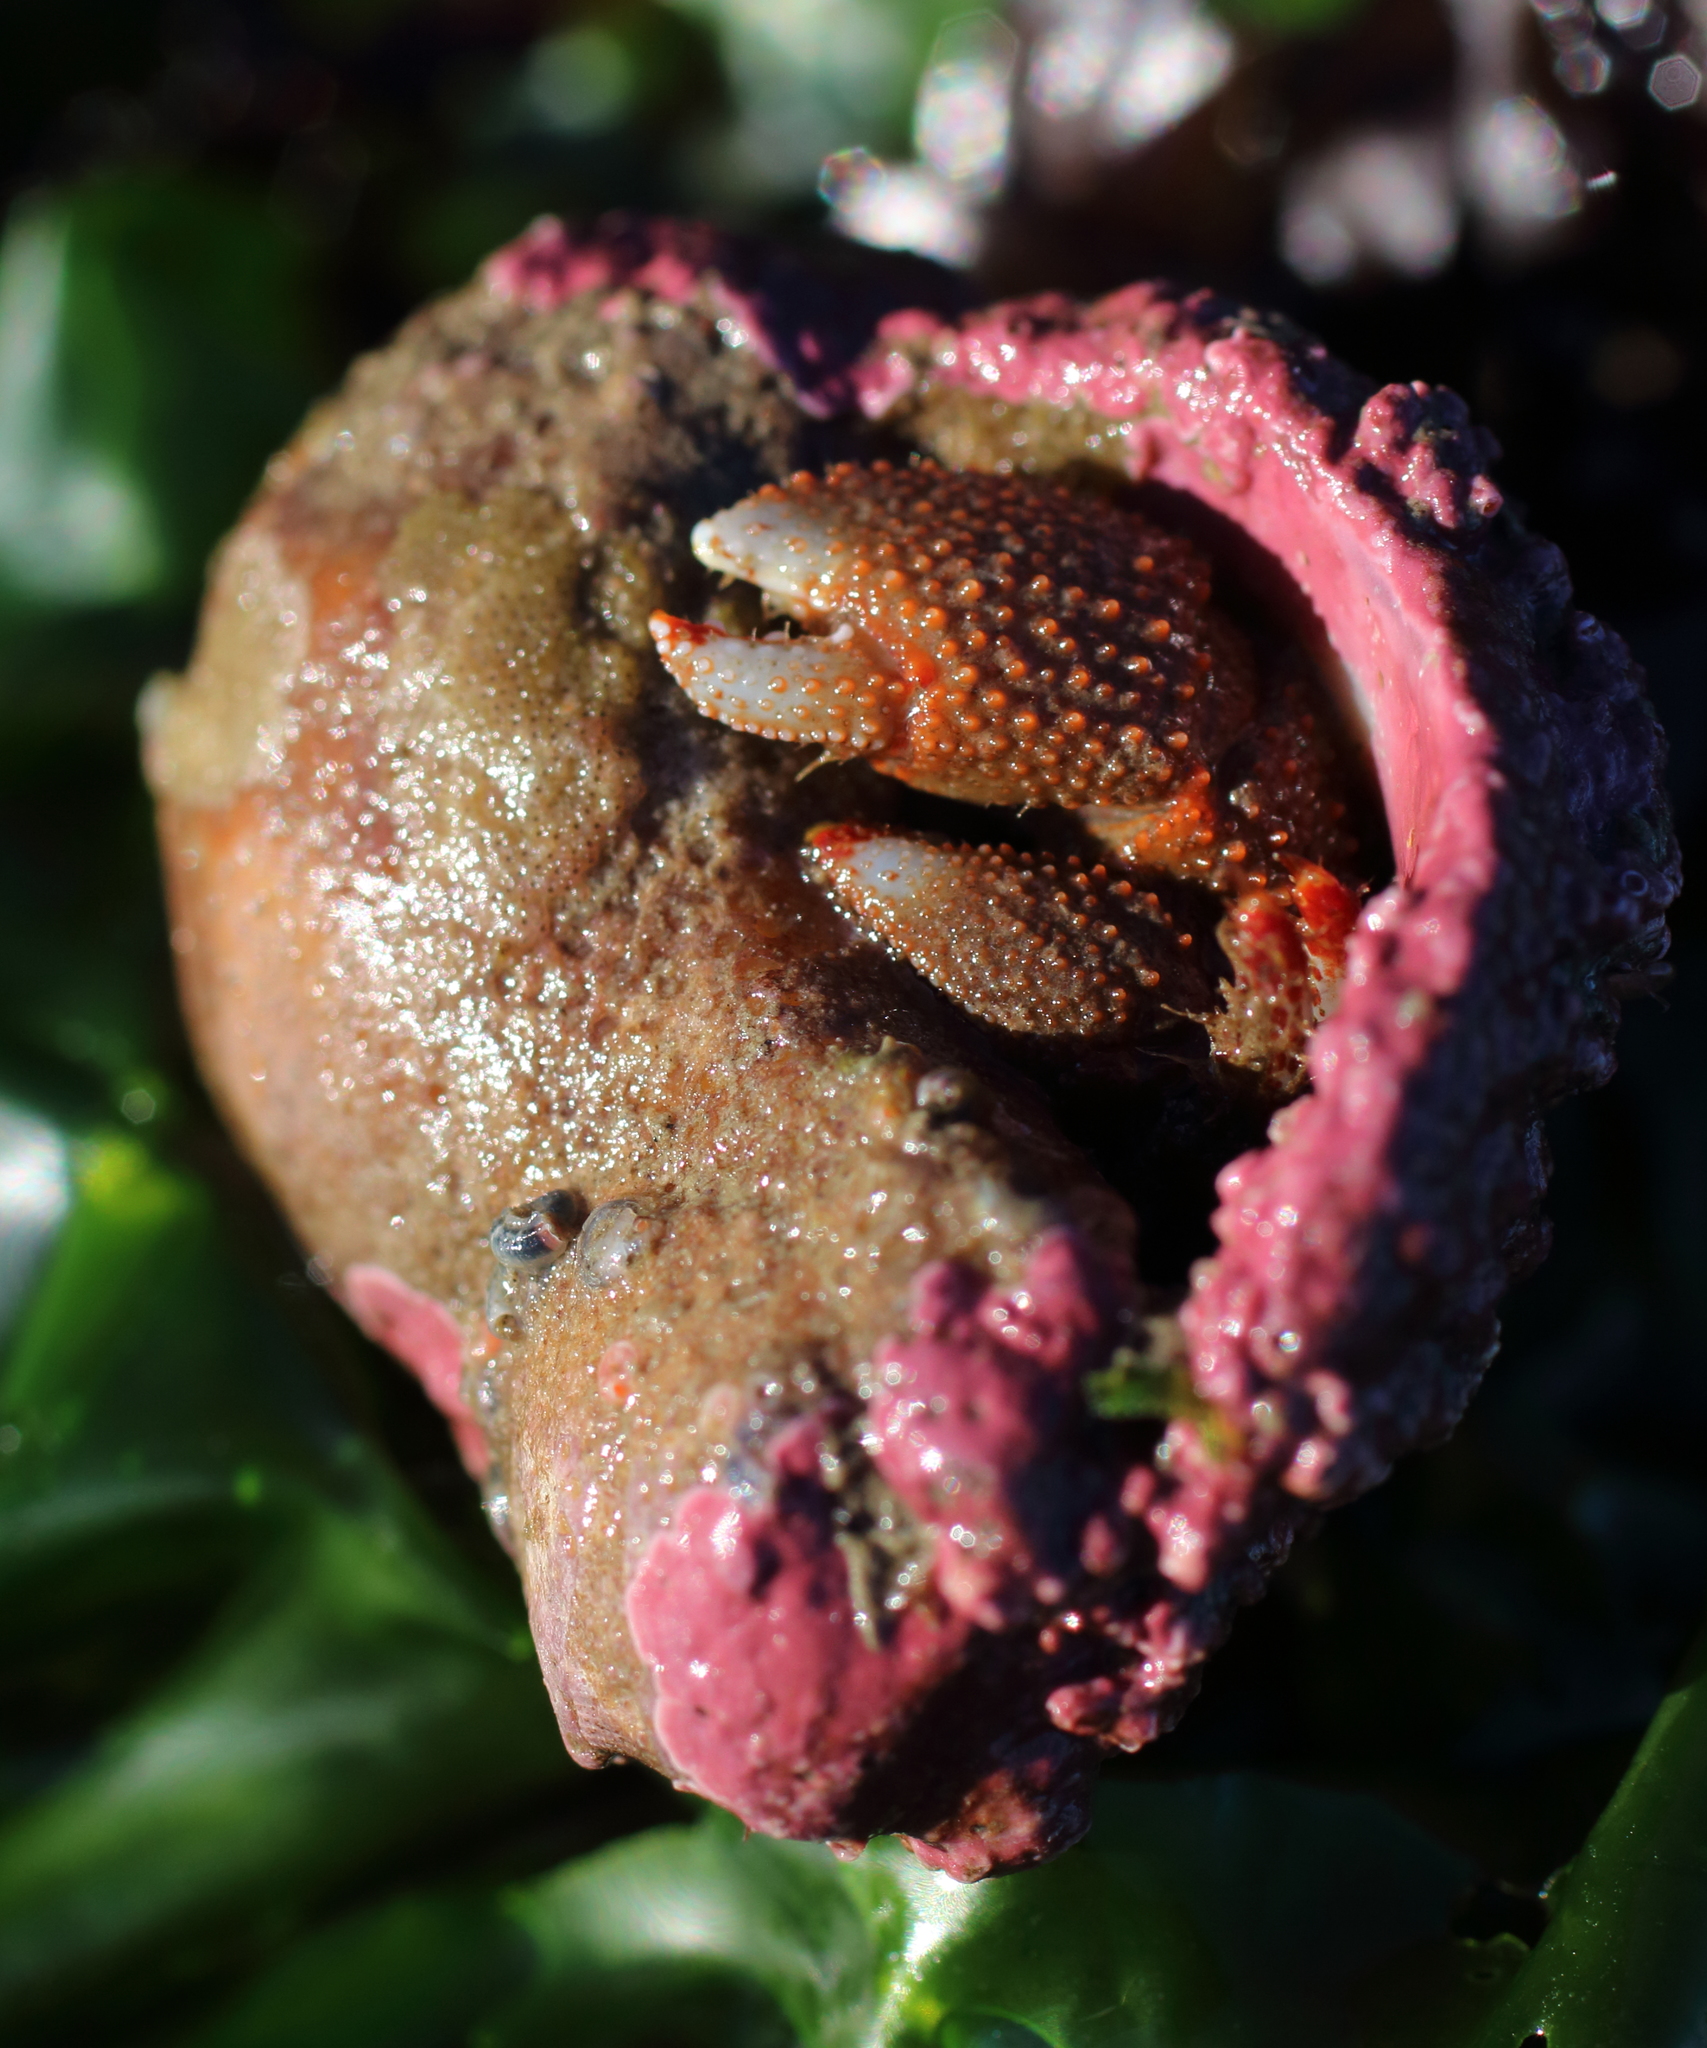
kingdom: Animalia
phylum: Arthropoda
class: Malacostraca
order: Decapoda
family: Paguridae
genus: Pagurus
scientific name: Pagurus beringanus
